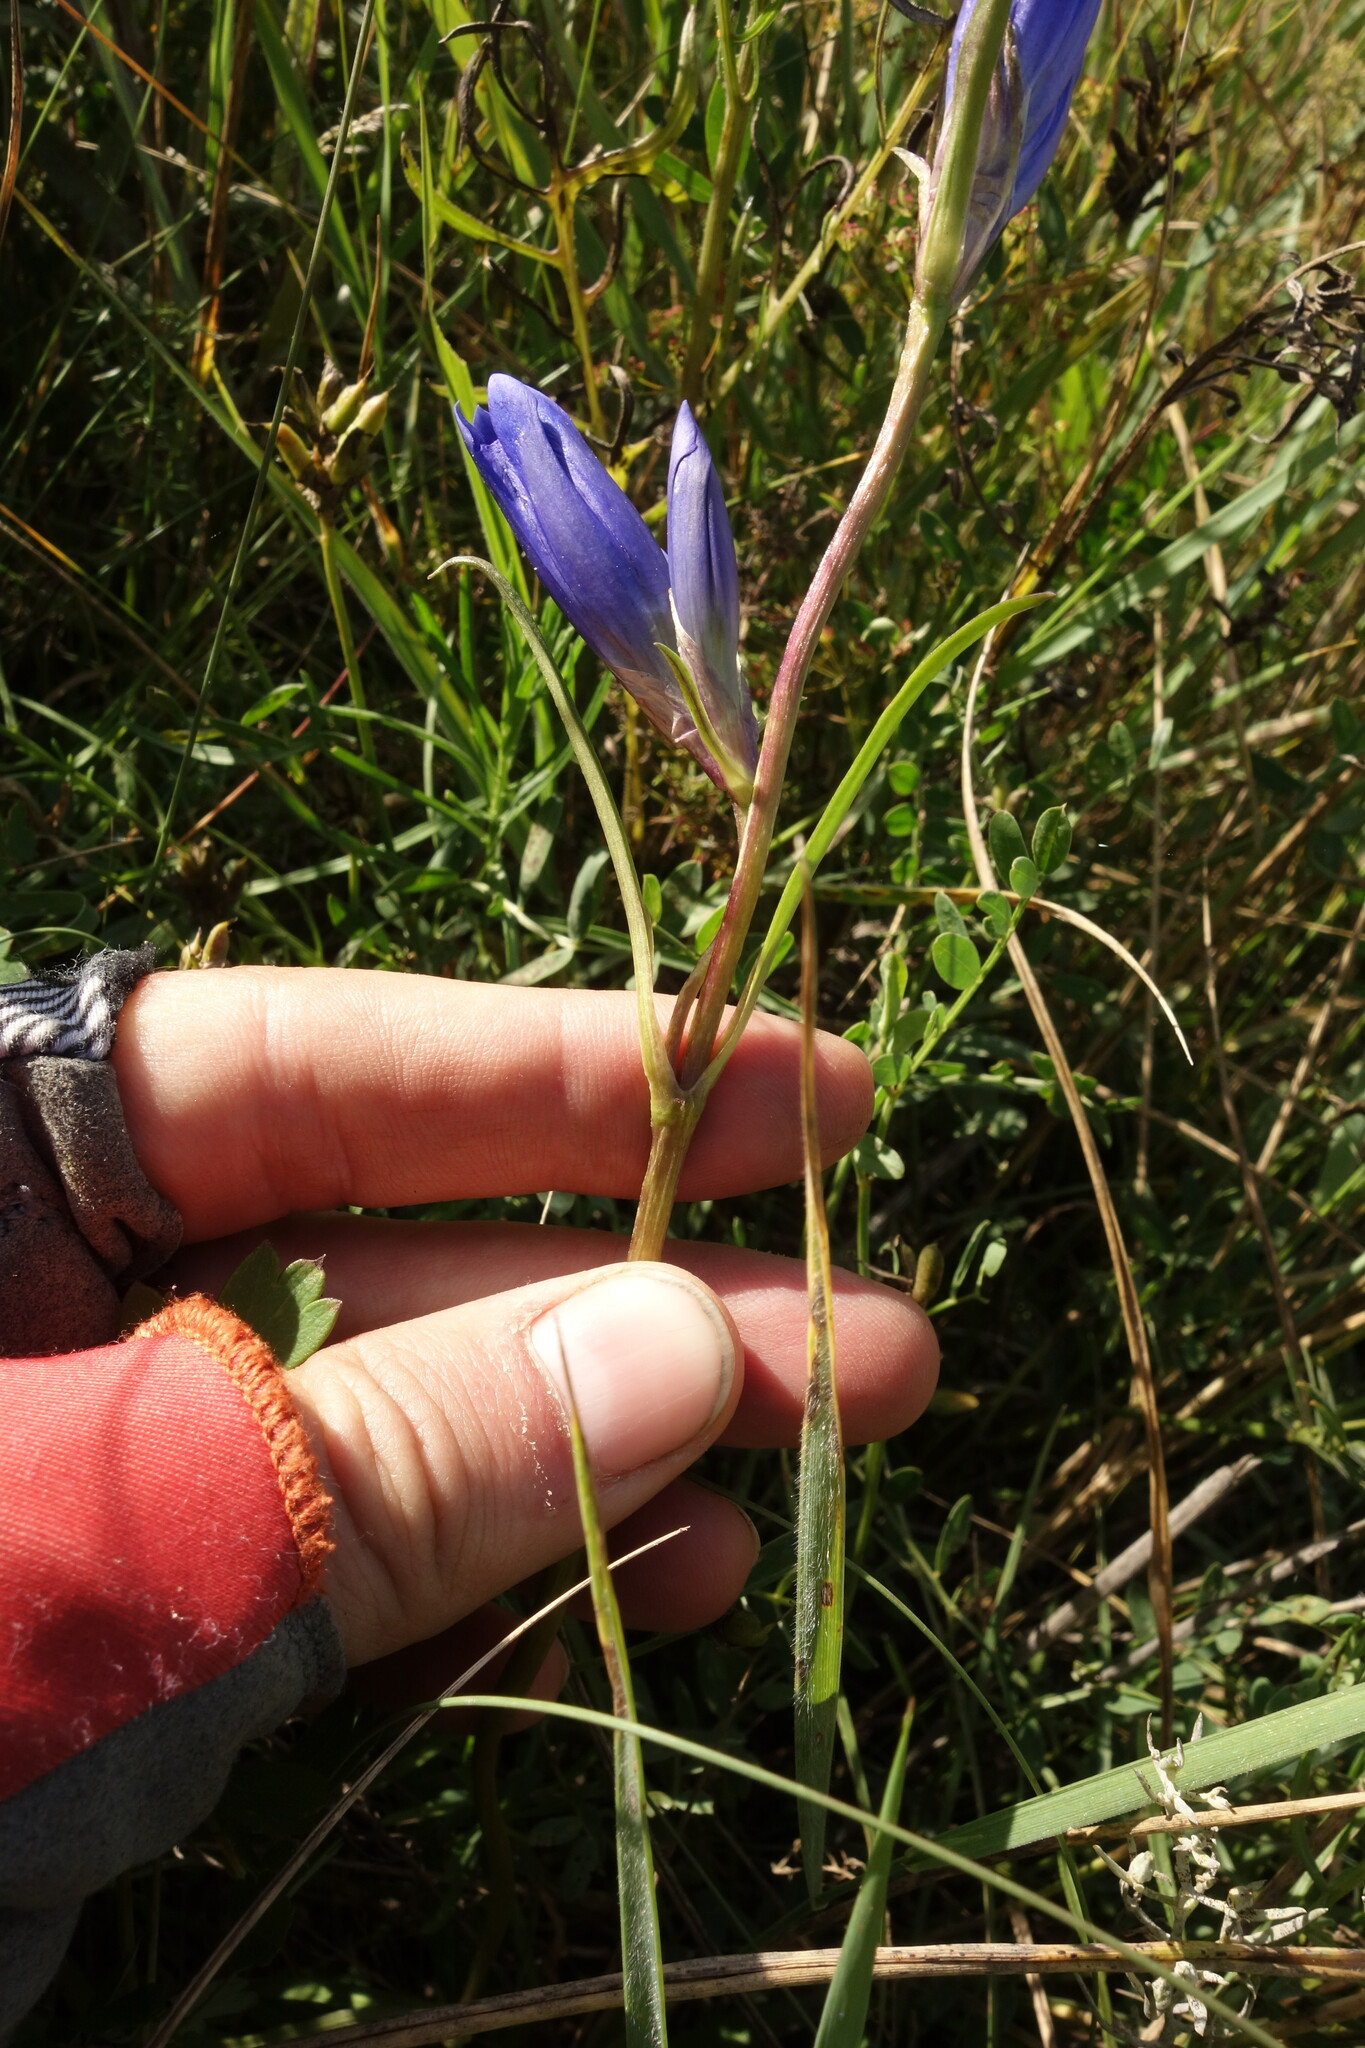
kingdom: Plantae
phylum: Tracheophyta
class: Magnoliopsida
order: Gentianales
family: Gentianaceae
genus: Gentiana
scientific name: Gentiana decumbens
